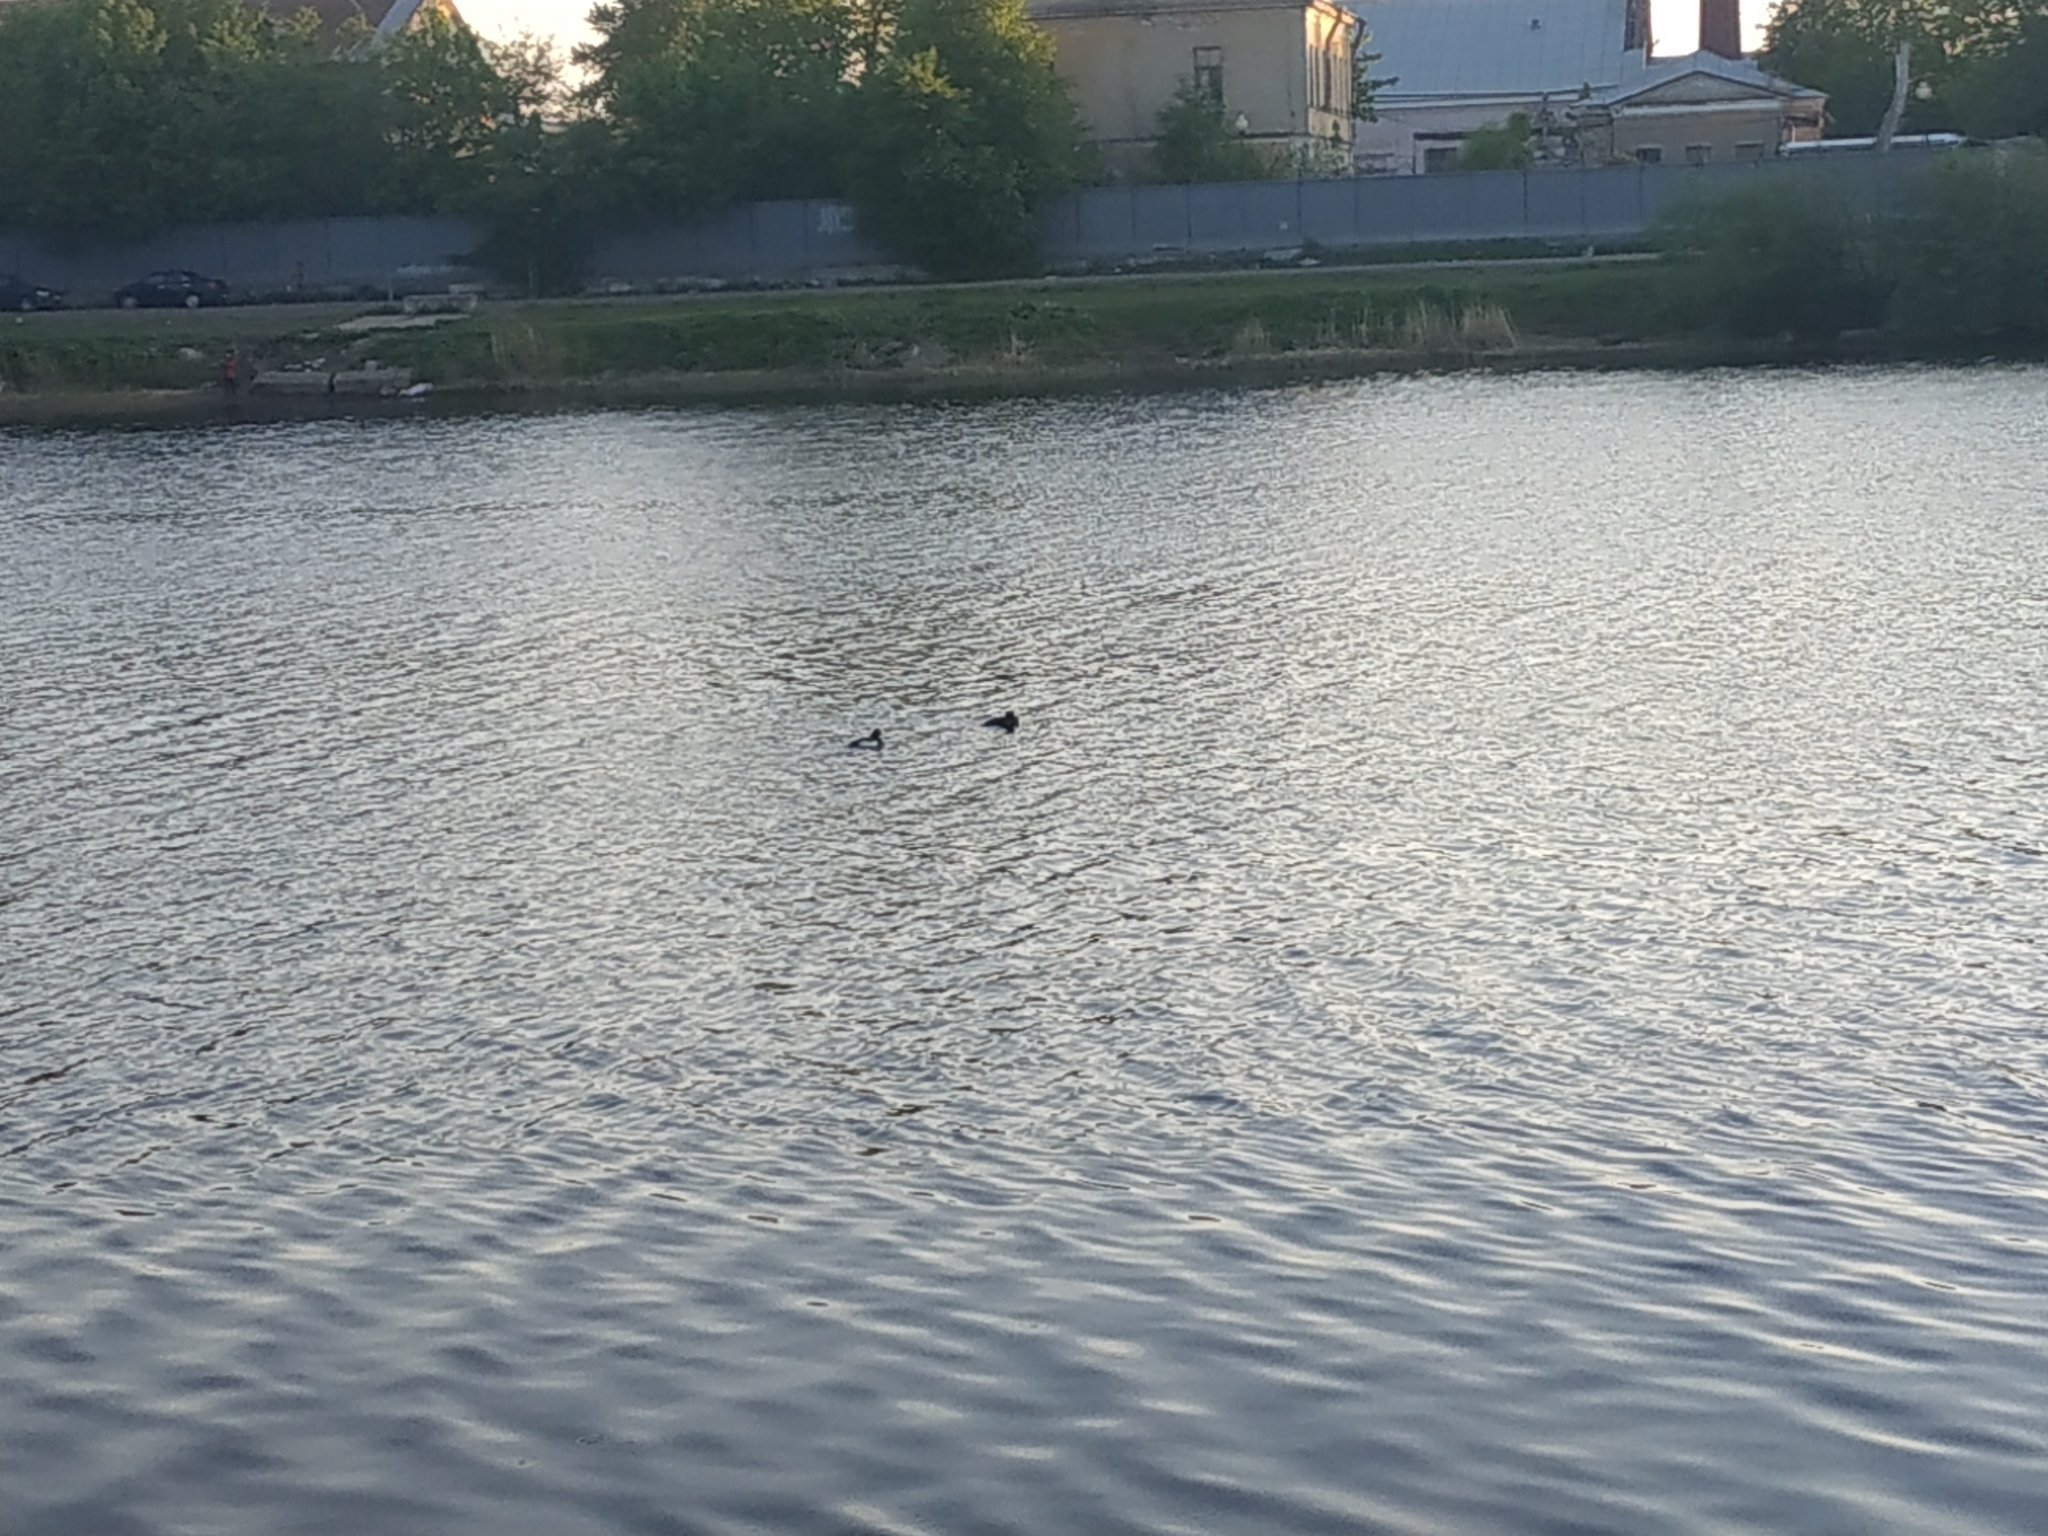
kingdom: Animalia
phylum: Chordata
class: Aves
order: Anseriformes
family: Anatidae
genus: Aythya
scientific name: Aythya fuligula
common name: Tufted duck
